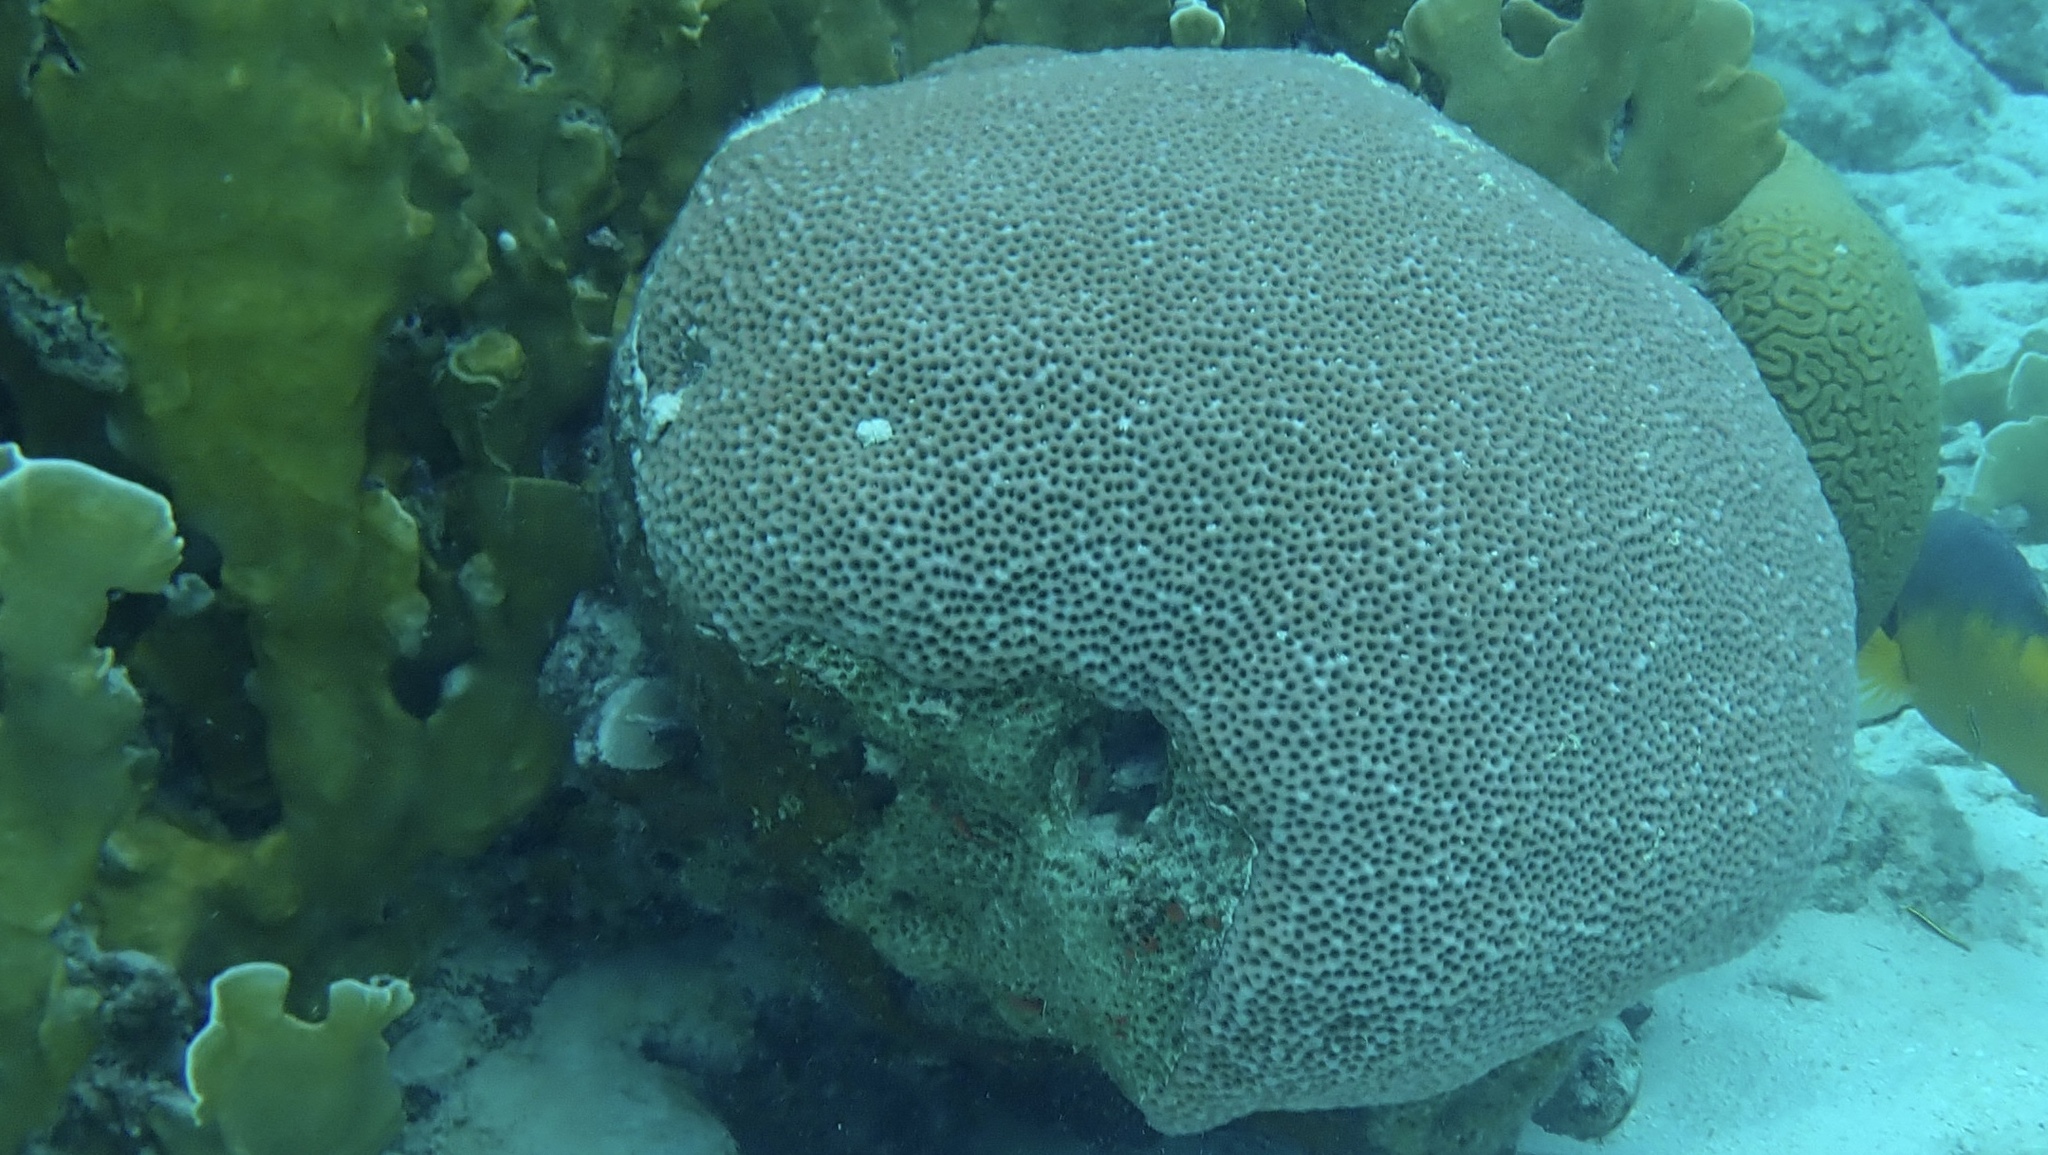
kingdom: Animalia
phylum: Cnidaria
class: Anthozoa
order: Scleractinia
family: Rhizangiidae
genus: Siderastrea
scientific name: Siderastrea siderea
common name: Massive starlet coral
